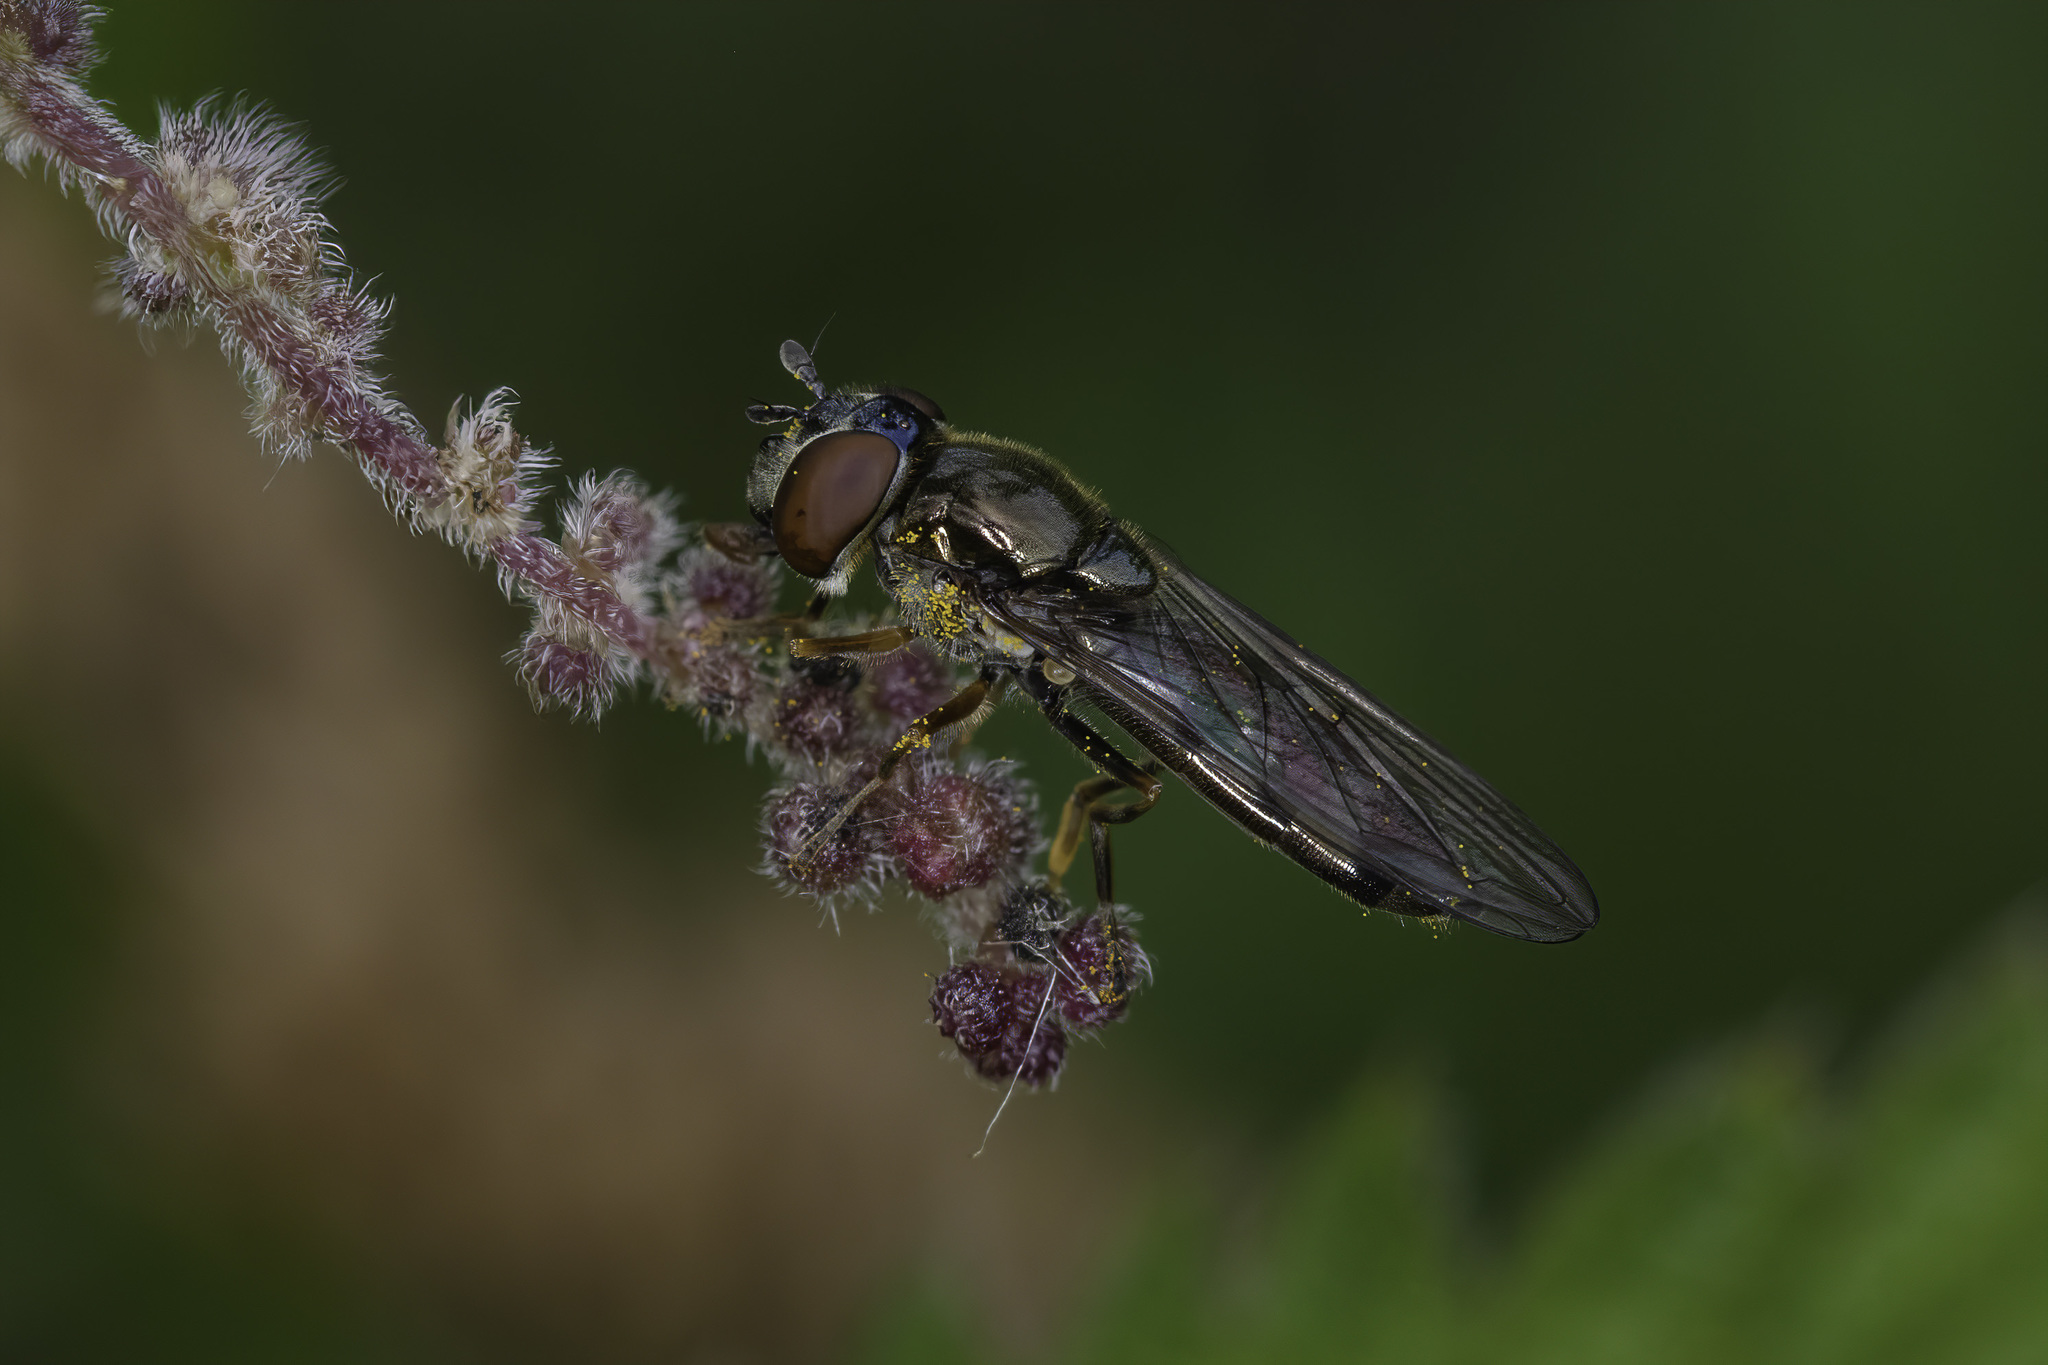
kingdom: Animalia
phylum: Arthropoda
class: Insecta
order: Diptera
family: Syrphidae
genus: Platycheirus
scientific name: Platycheirus albimanus
